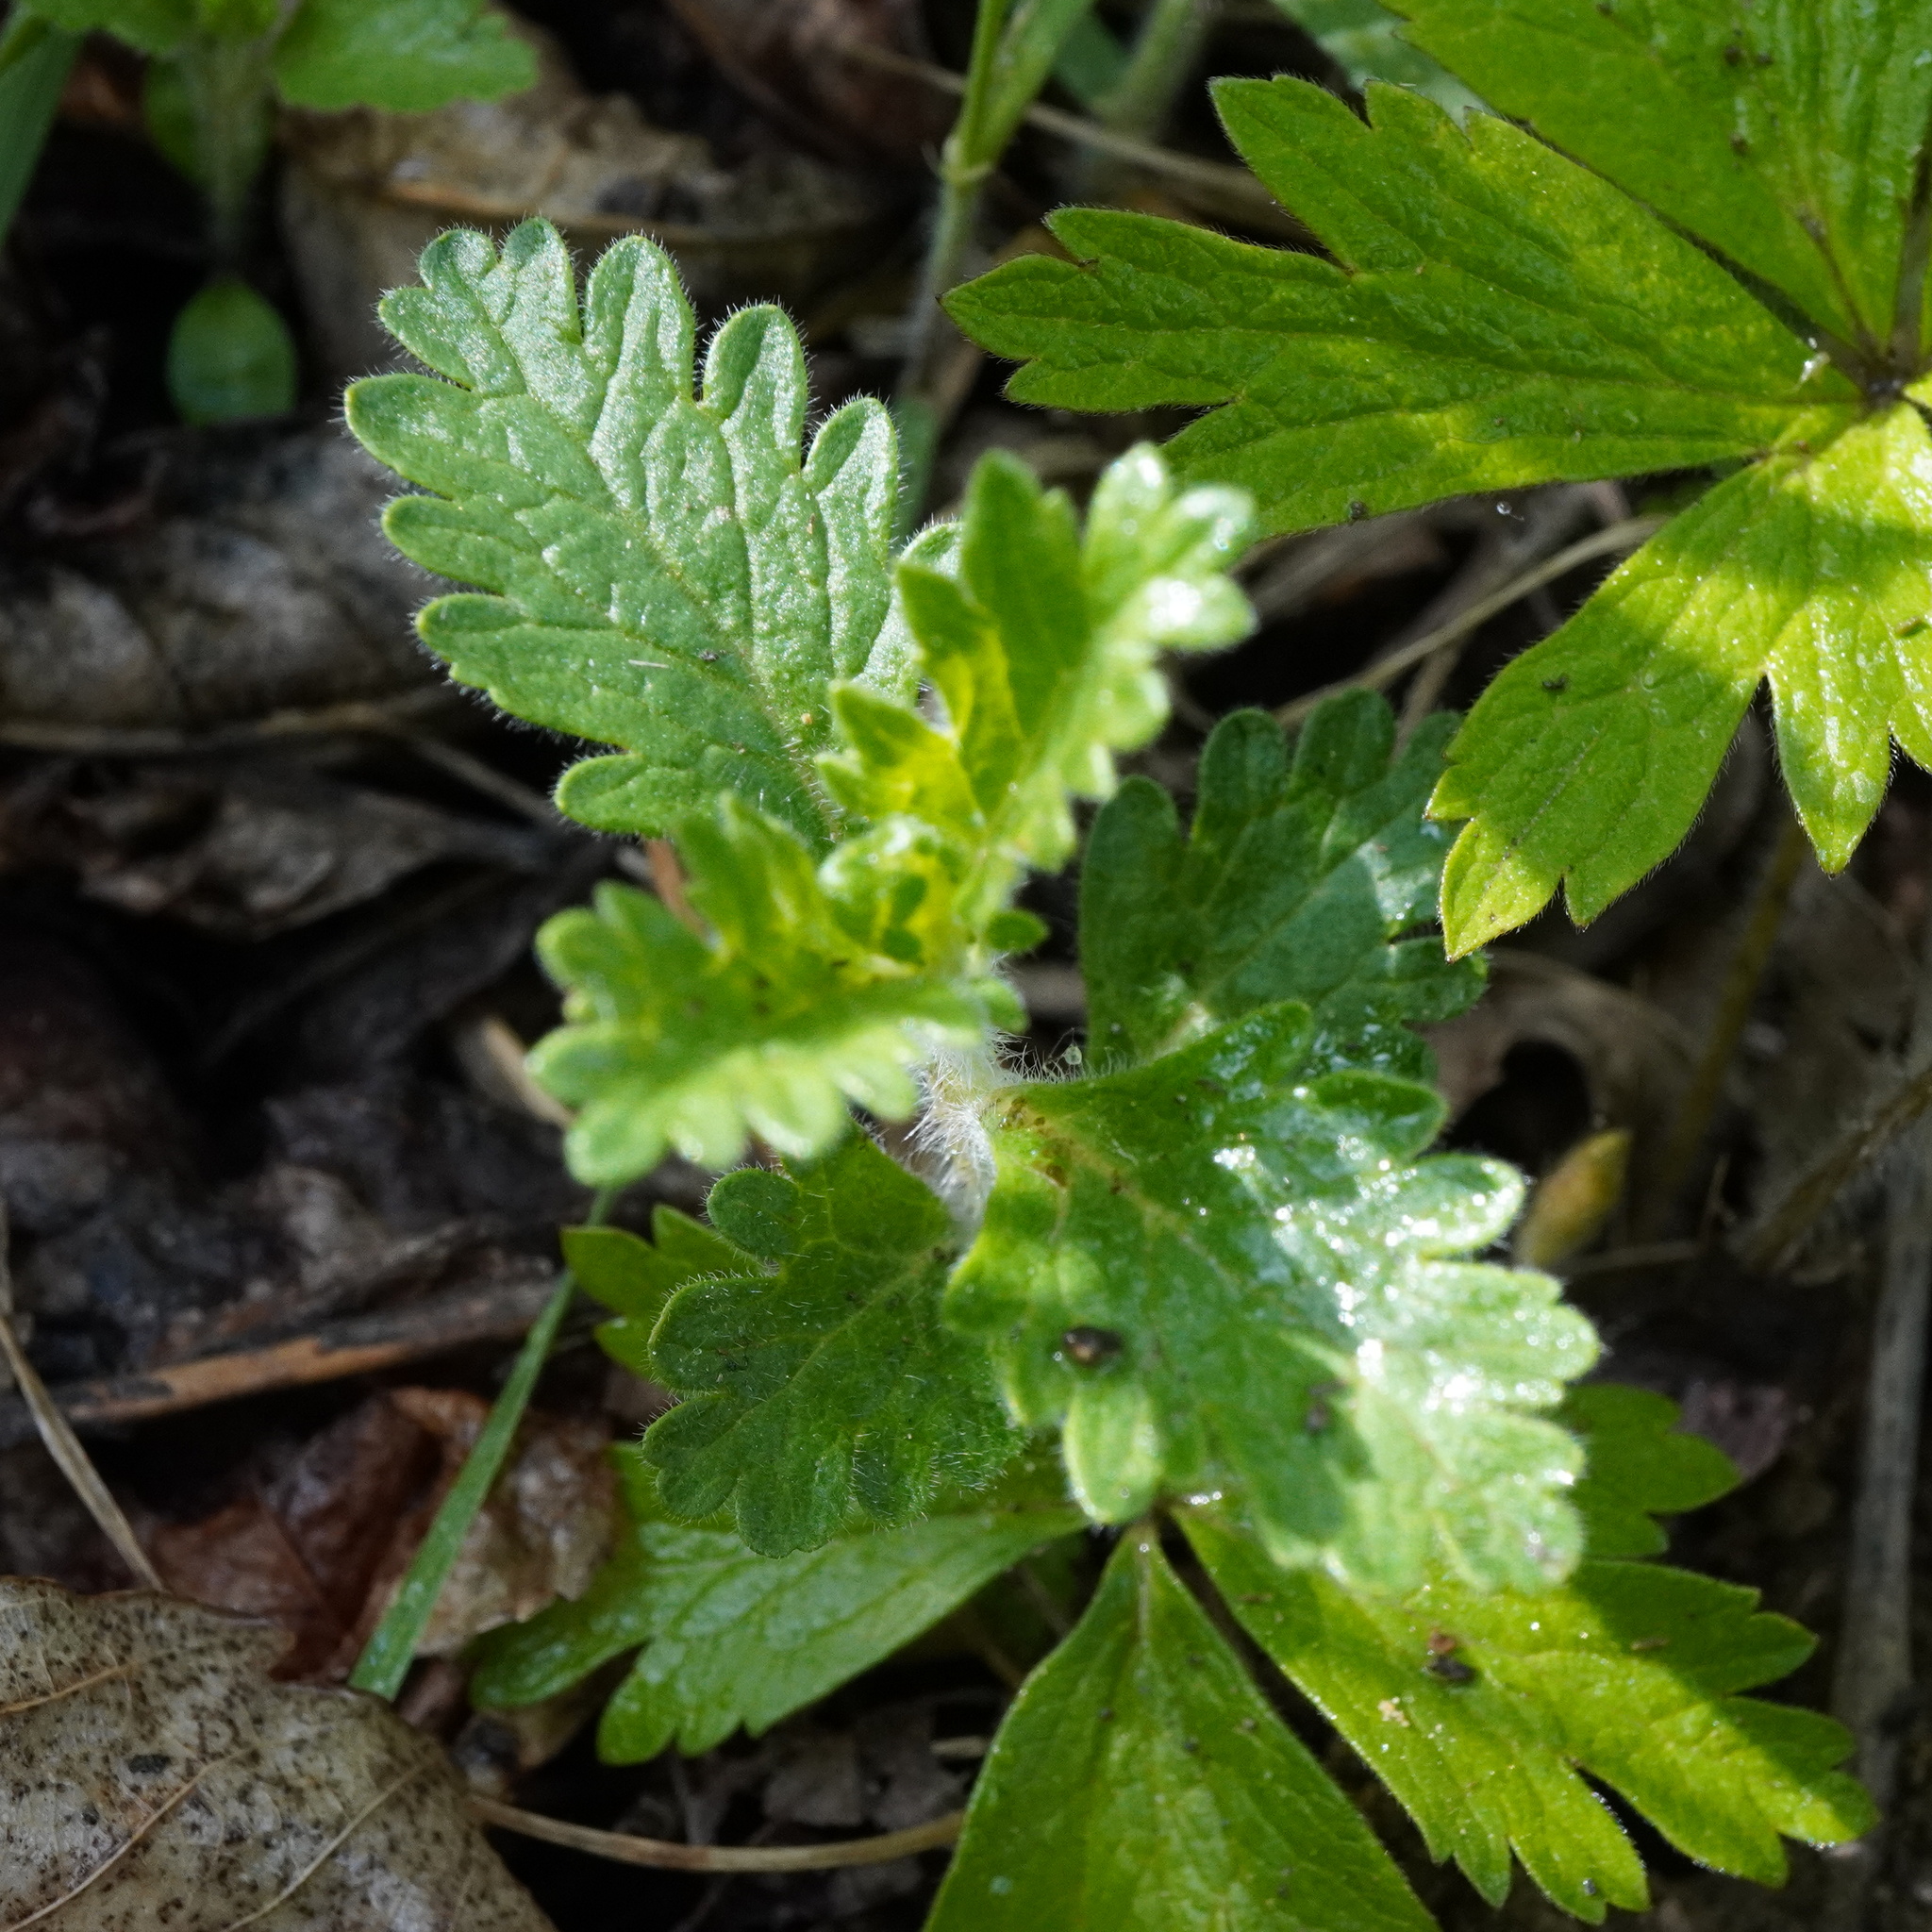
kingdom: Plantae
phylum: Tracheophyta
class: Magnoliopsida
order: Lamiales
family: Lamiaceae
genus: Teucrium
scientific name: Teucrium chamaedrys
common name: Wall germander
